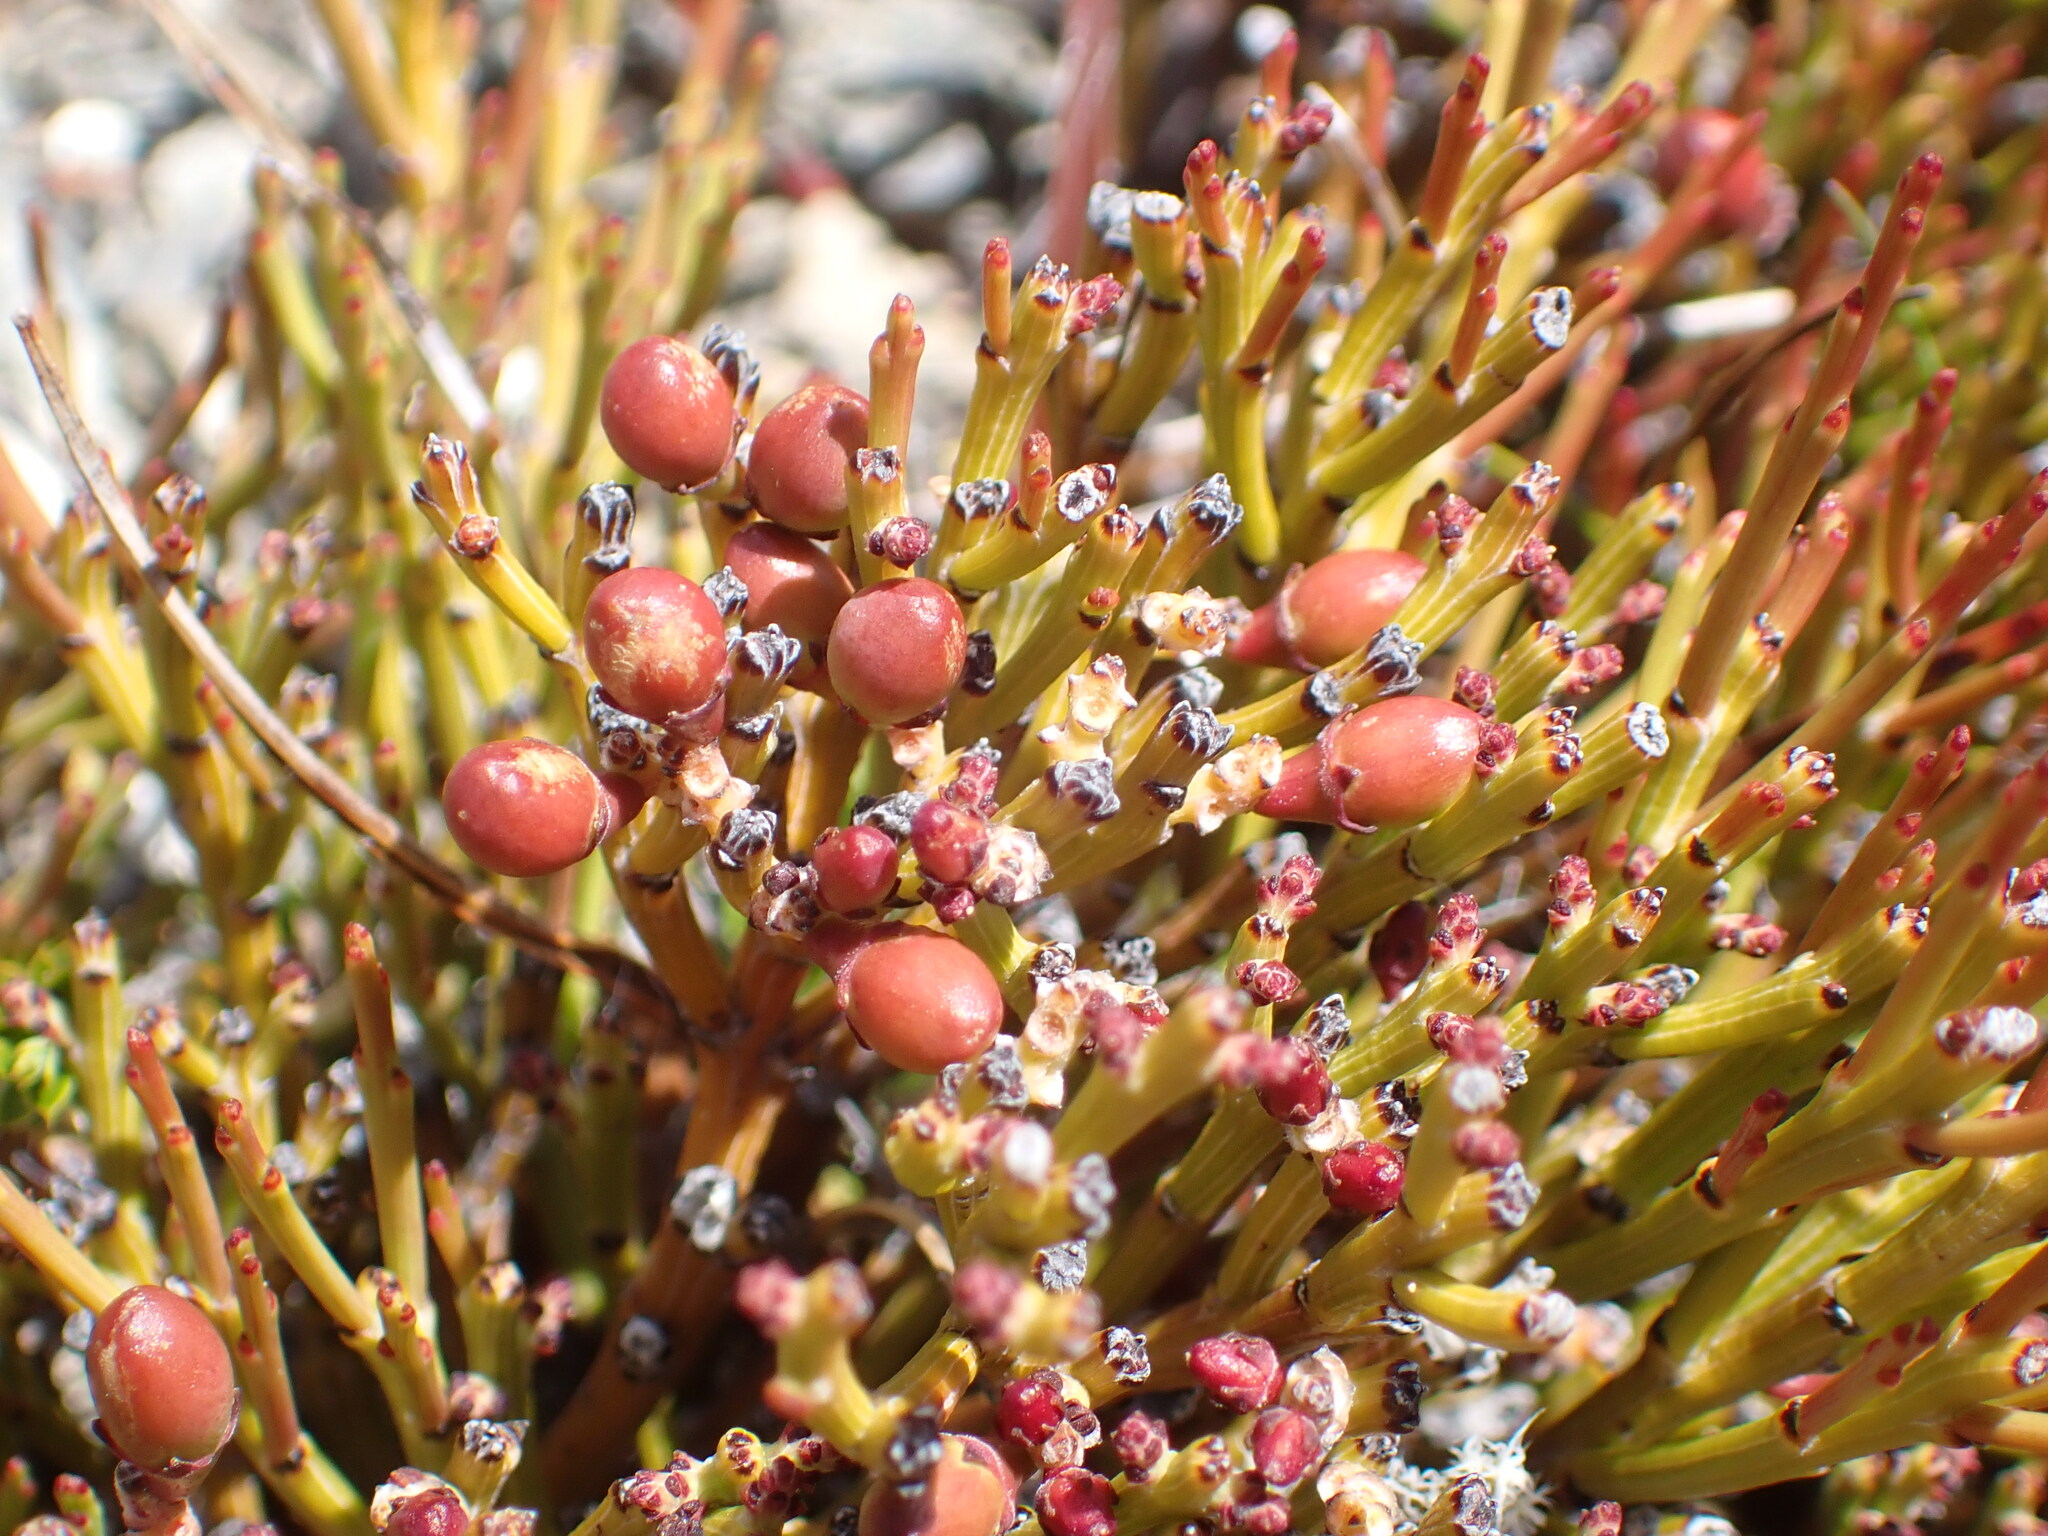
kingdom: Plantae
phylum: Tracheophyta
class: Magnoliopsida
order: Santalales
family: Santalaceae
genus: Exocarpos
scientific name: Exocarpos bidwillii
